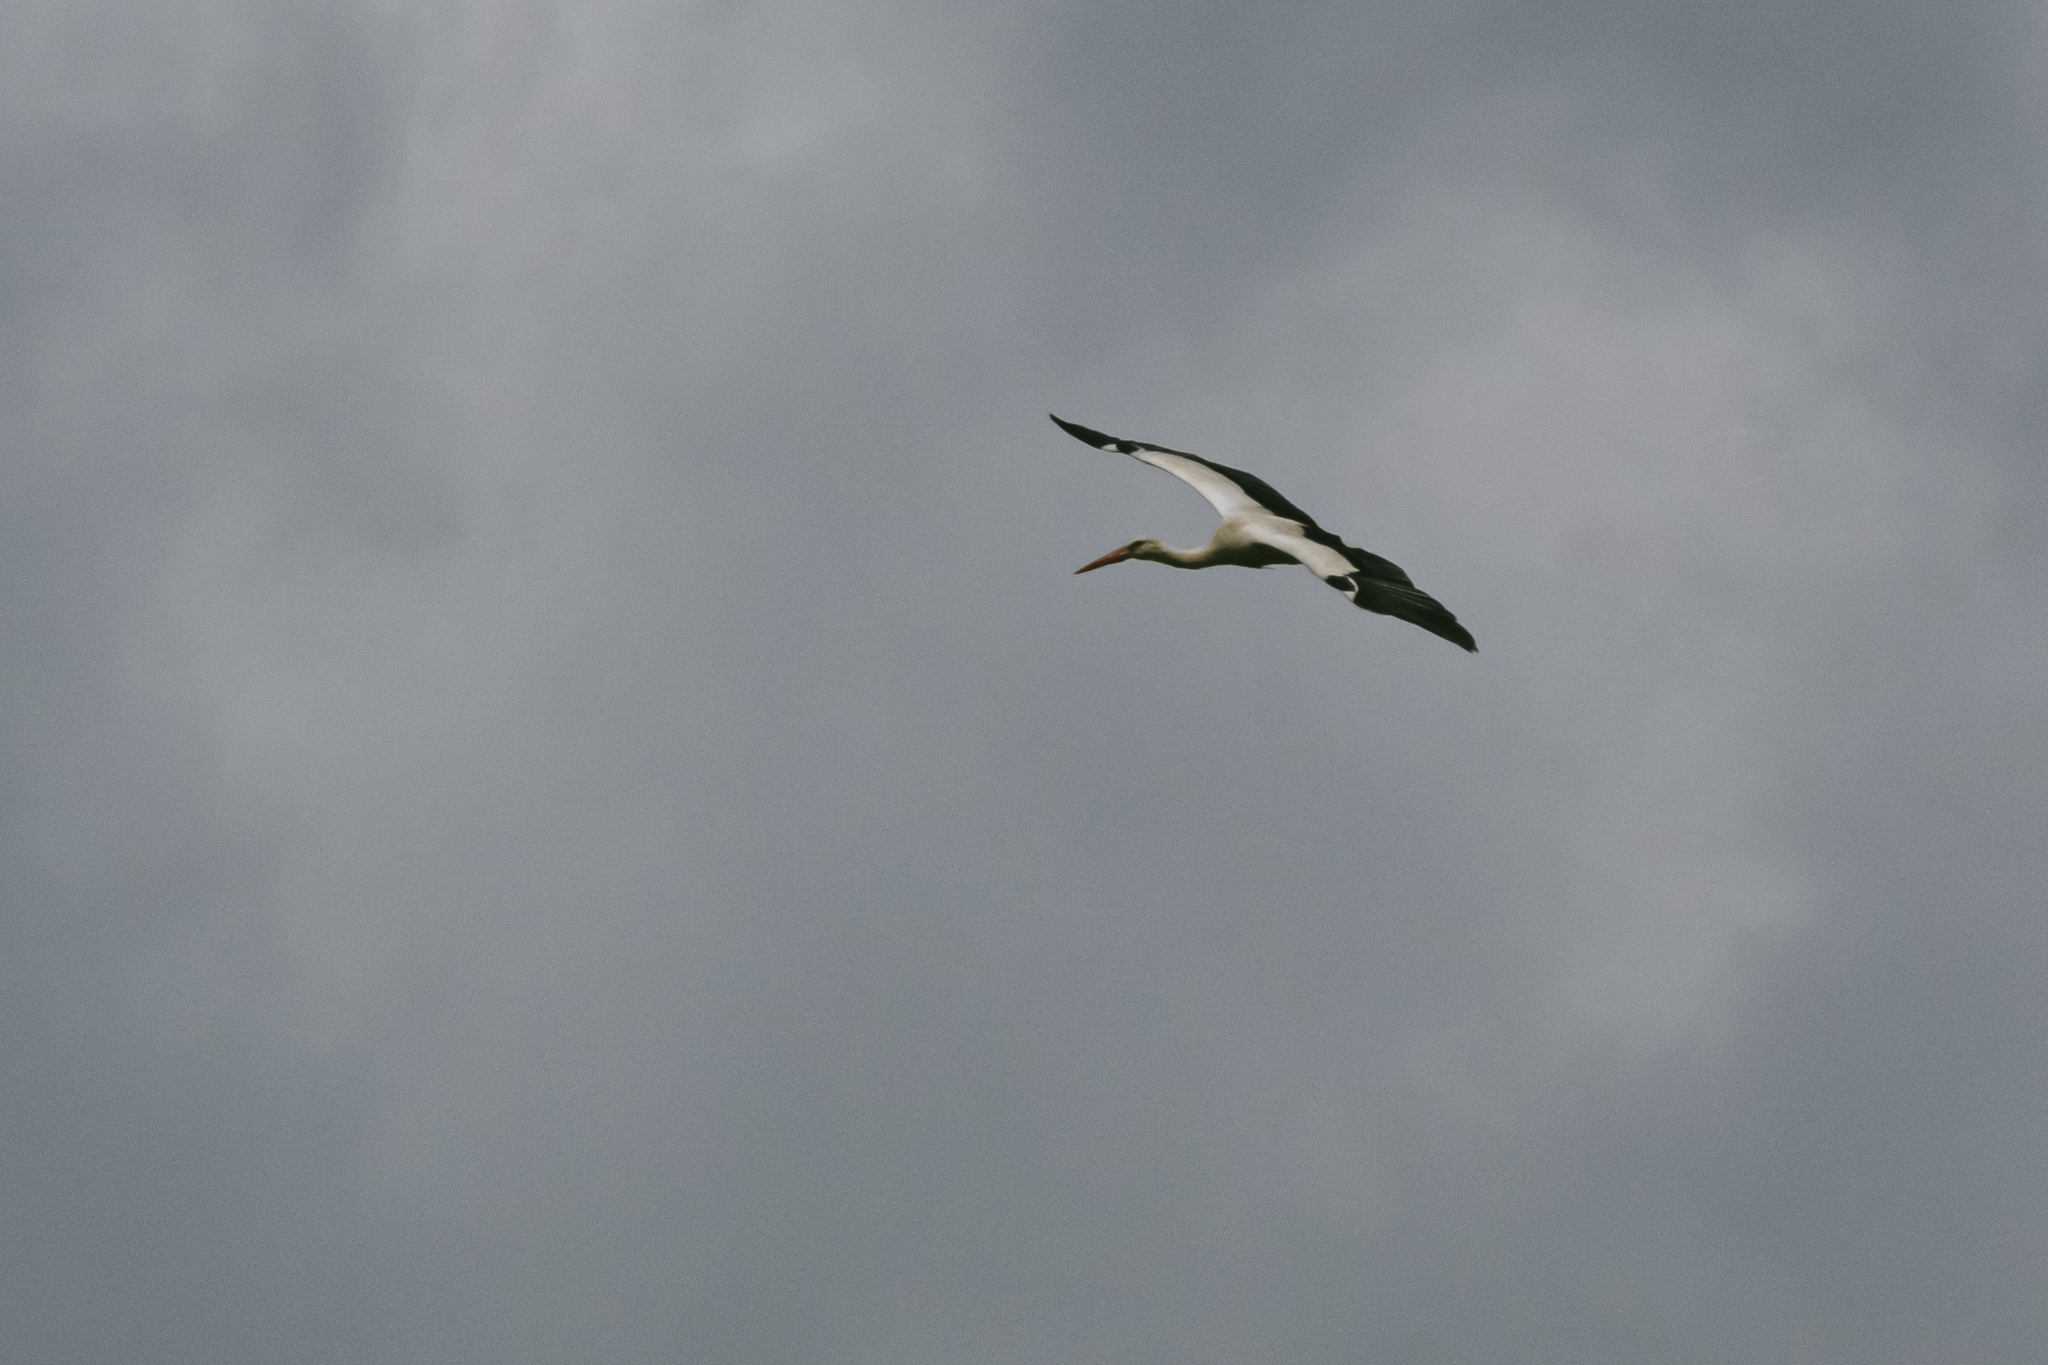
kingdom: Animalia
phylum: Chordata
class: Aves
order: Ciconiiformes
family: Ciconiidae
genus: Ciconia
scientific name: Ciconia ciconia
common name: White stork
